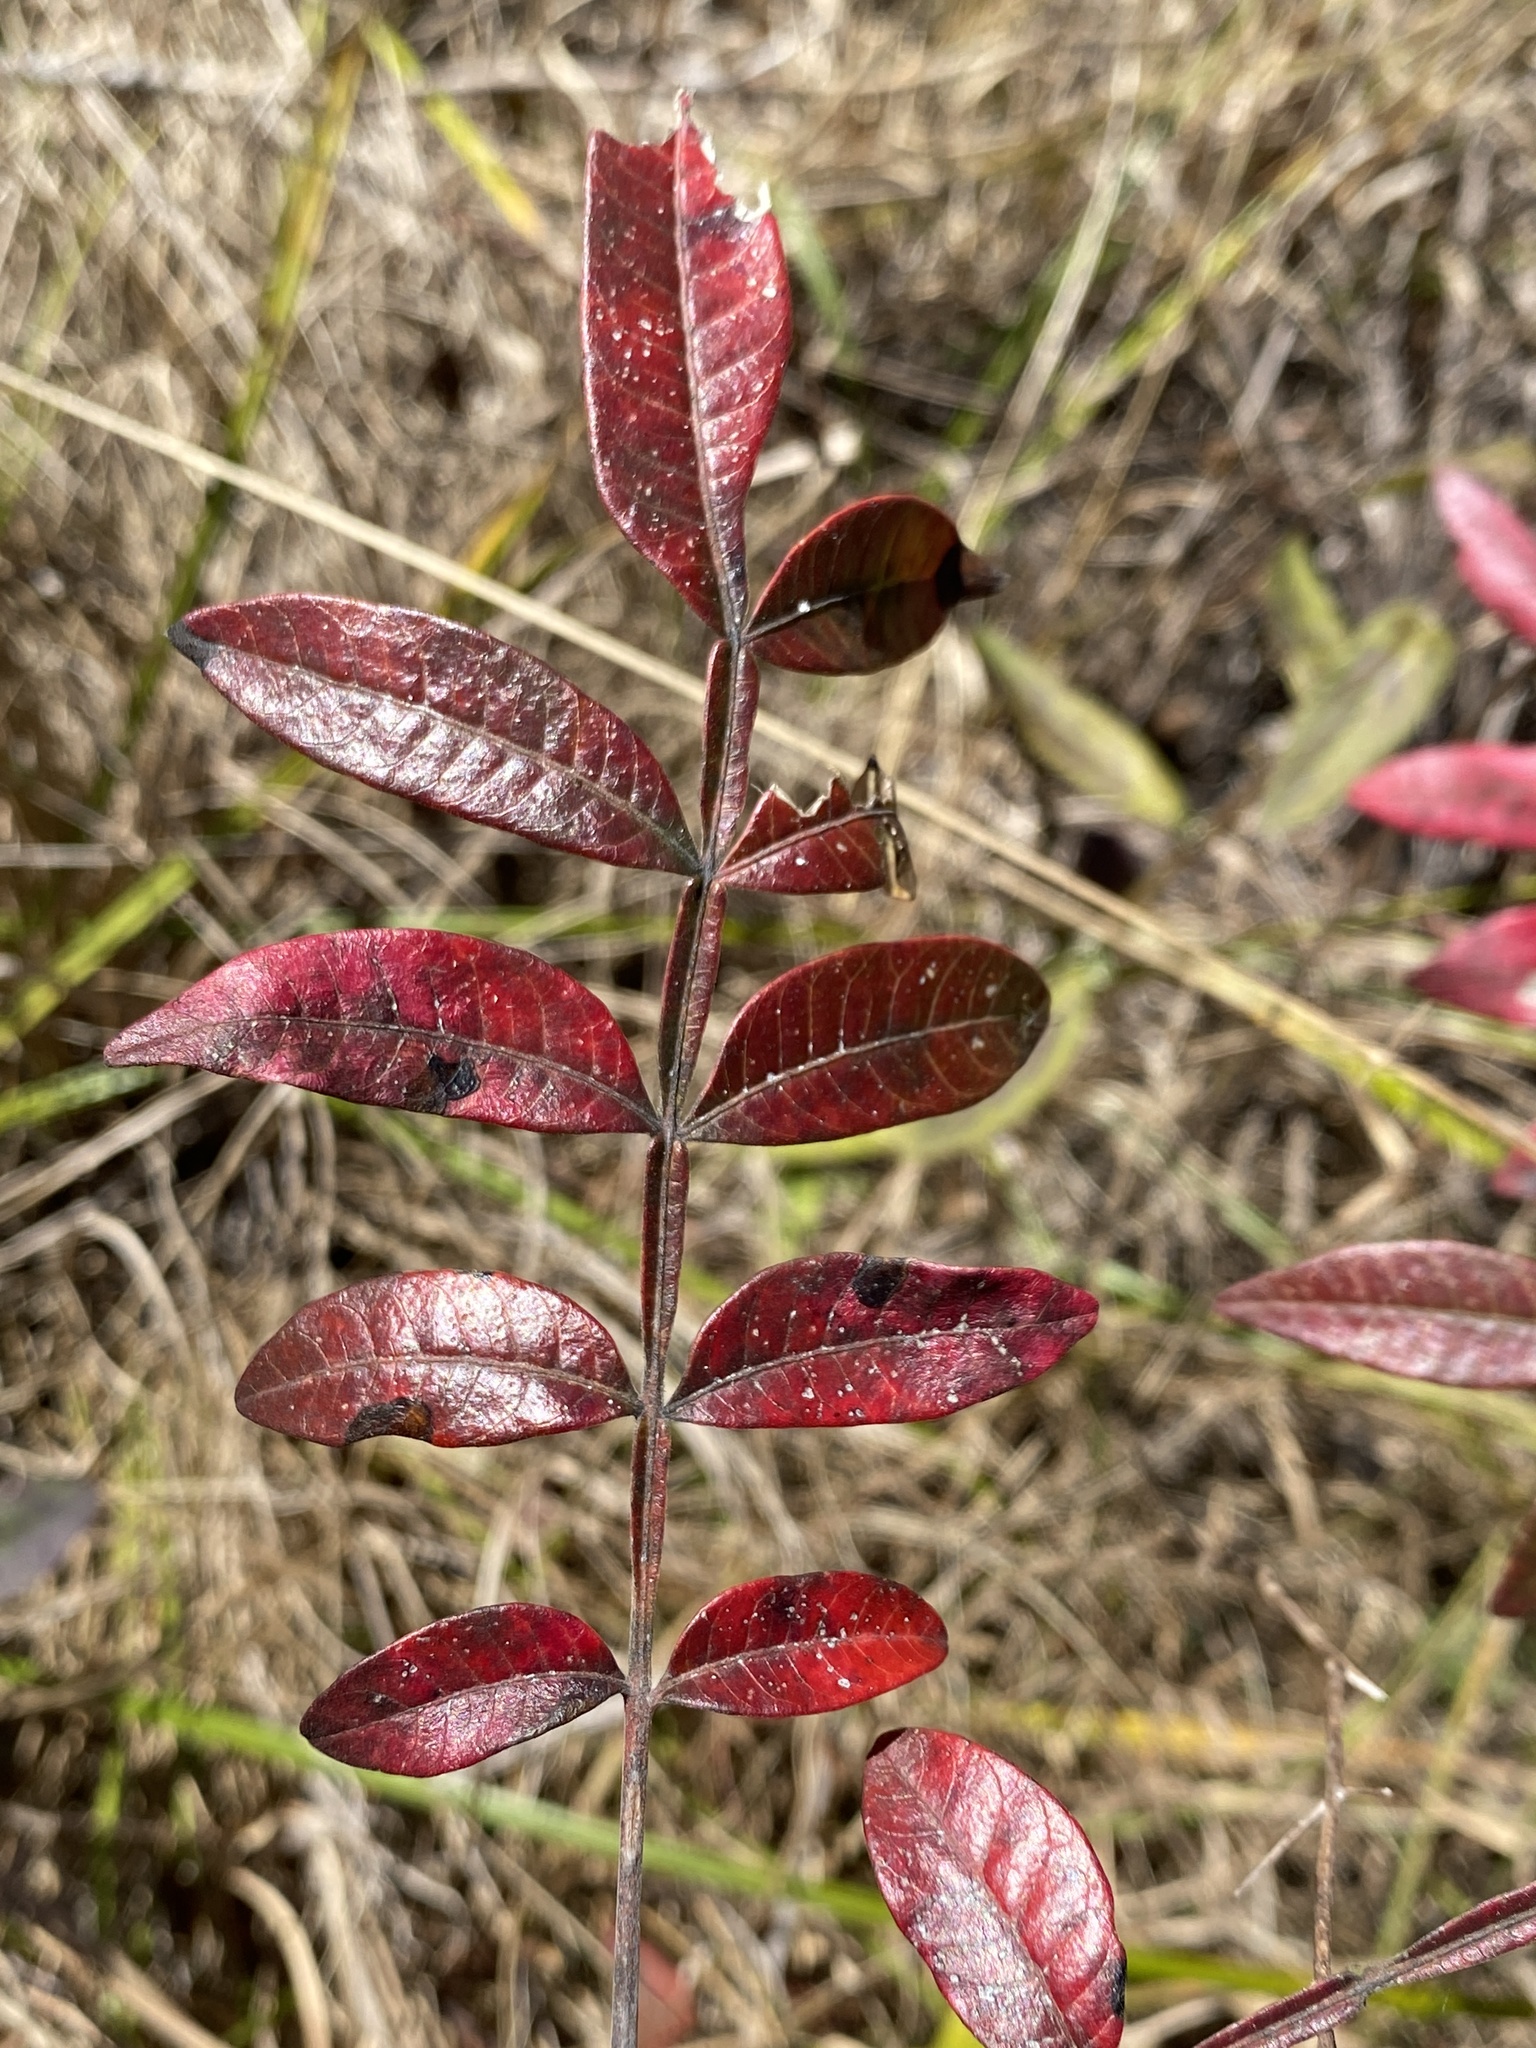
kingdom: Plantae
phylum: Tracheophyta
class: Magnoliopsida
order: Sapindales
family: Anacardiaceae
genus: Rhus
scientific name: Rhus copallina
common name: Shining sumac
